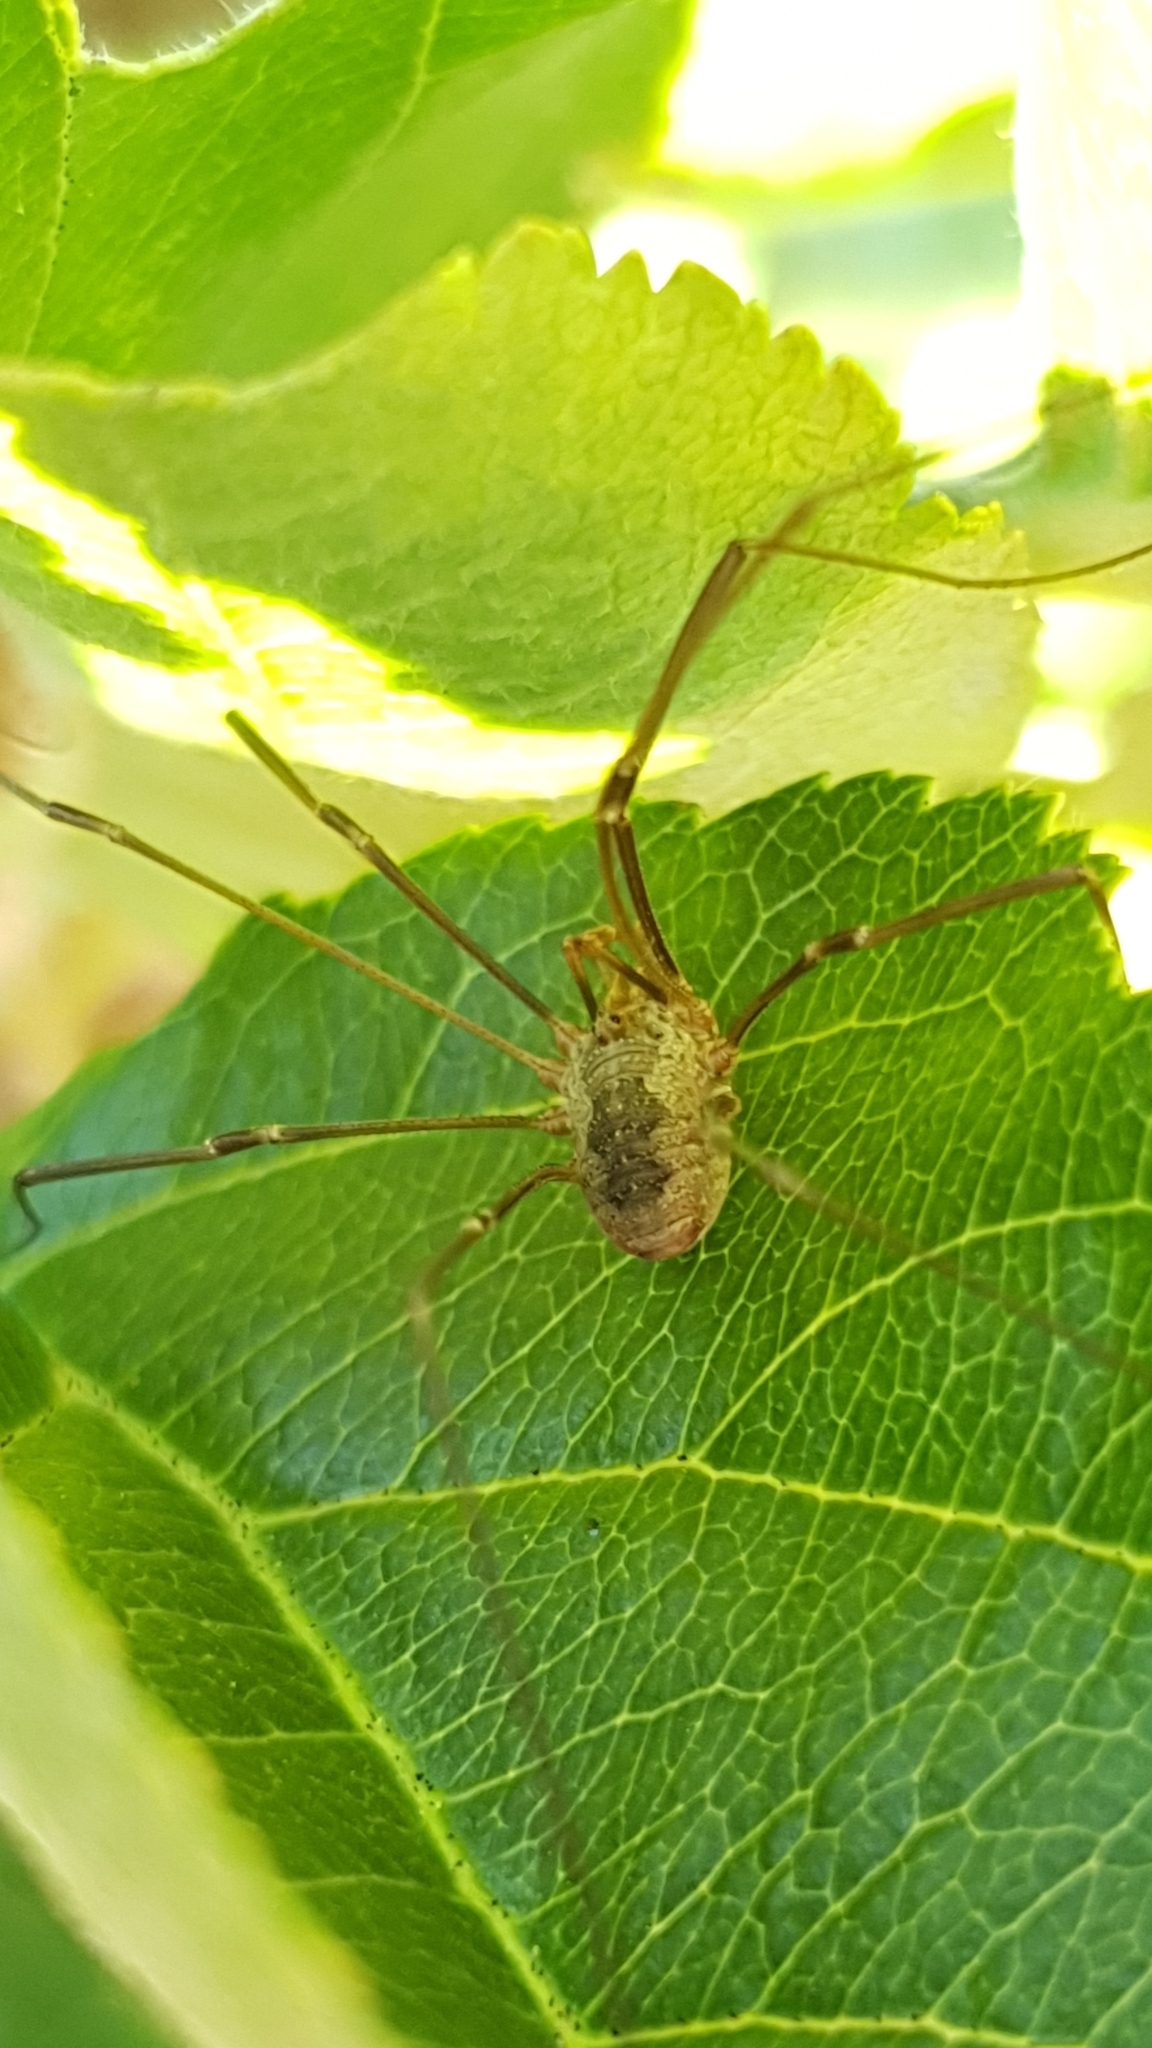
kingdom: Animalia
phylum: Arthropoda
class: Arachnida
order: Opiliones
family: Phalangiidae
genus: Phalangium
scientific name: Phalangium opilio
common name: Daddy longleg
